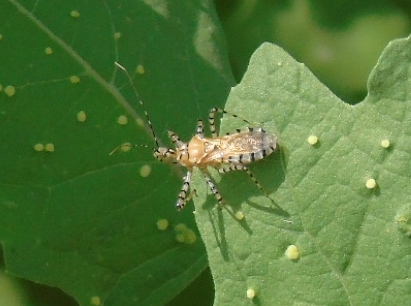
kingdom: Animalia
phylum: Arthropoda
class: Insecta
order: Hemiptera
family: Reduviidae
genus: Pselliopus
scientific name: Pselliopus
